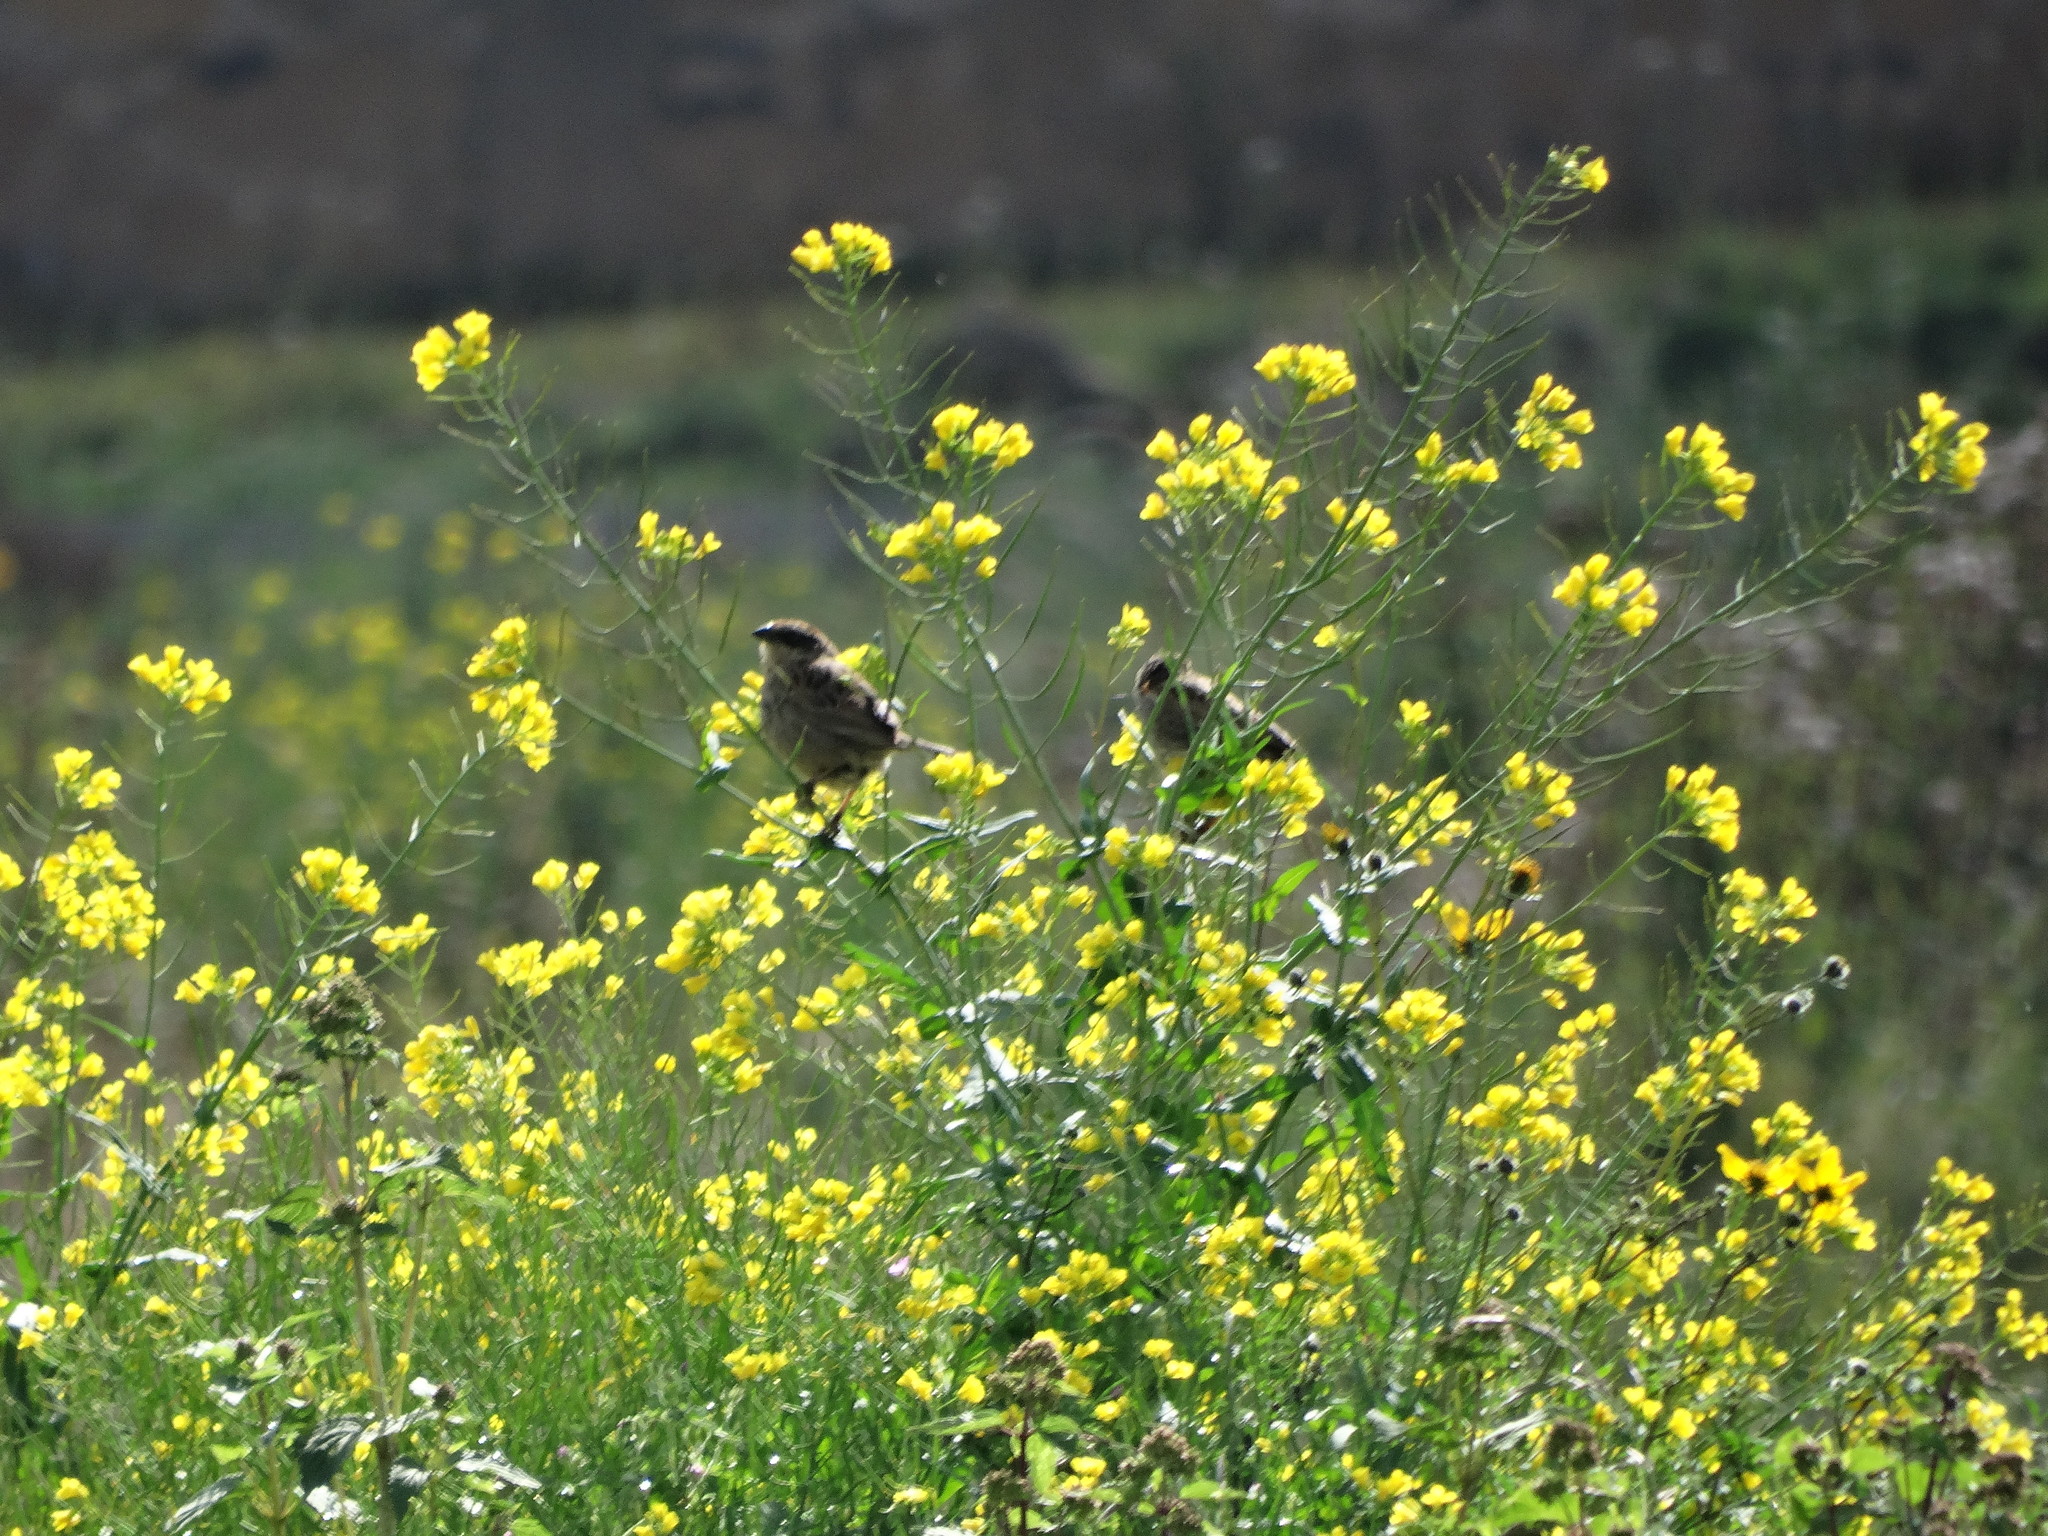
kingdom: Animalia
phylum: Chordata
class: Aves
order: Passeriformes
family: Passerellidae
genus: Oriturus
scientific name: Oriturus superciliosus
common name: Striped sparrow
